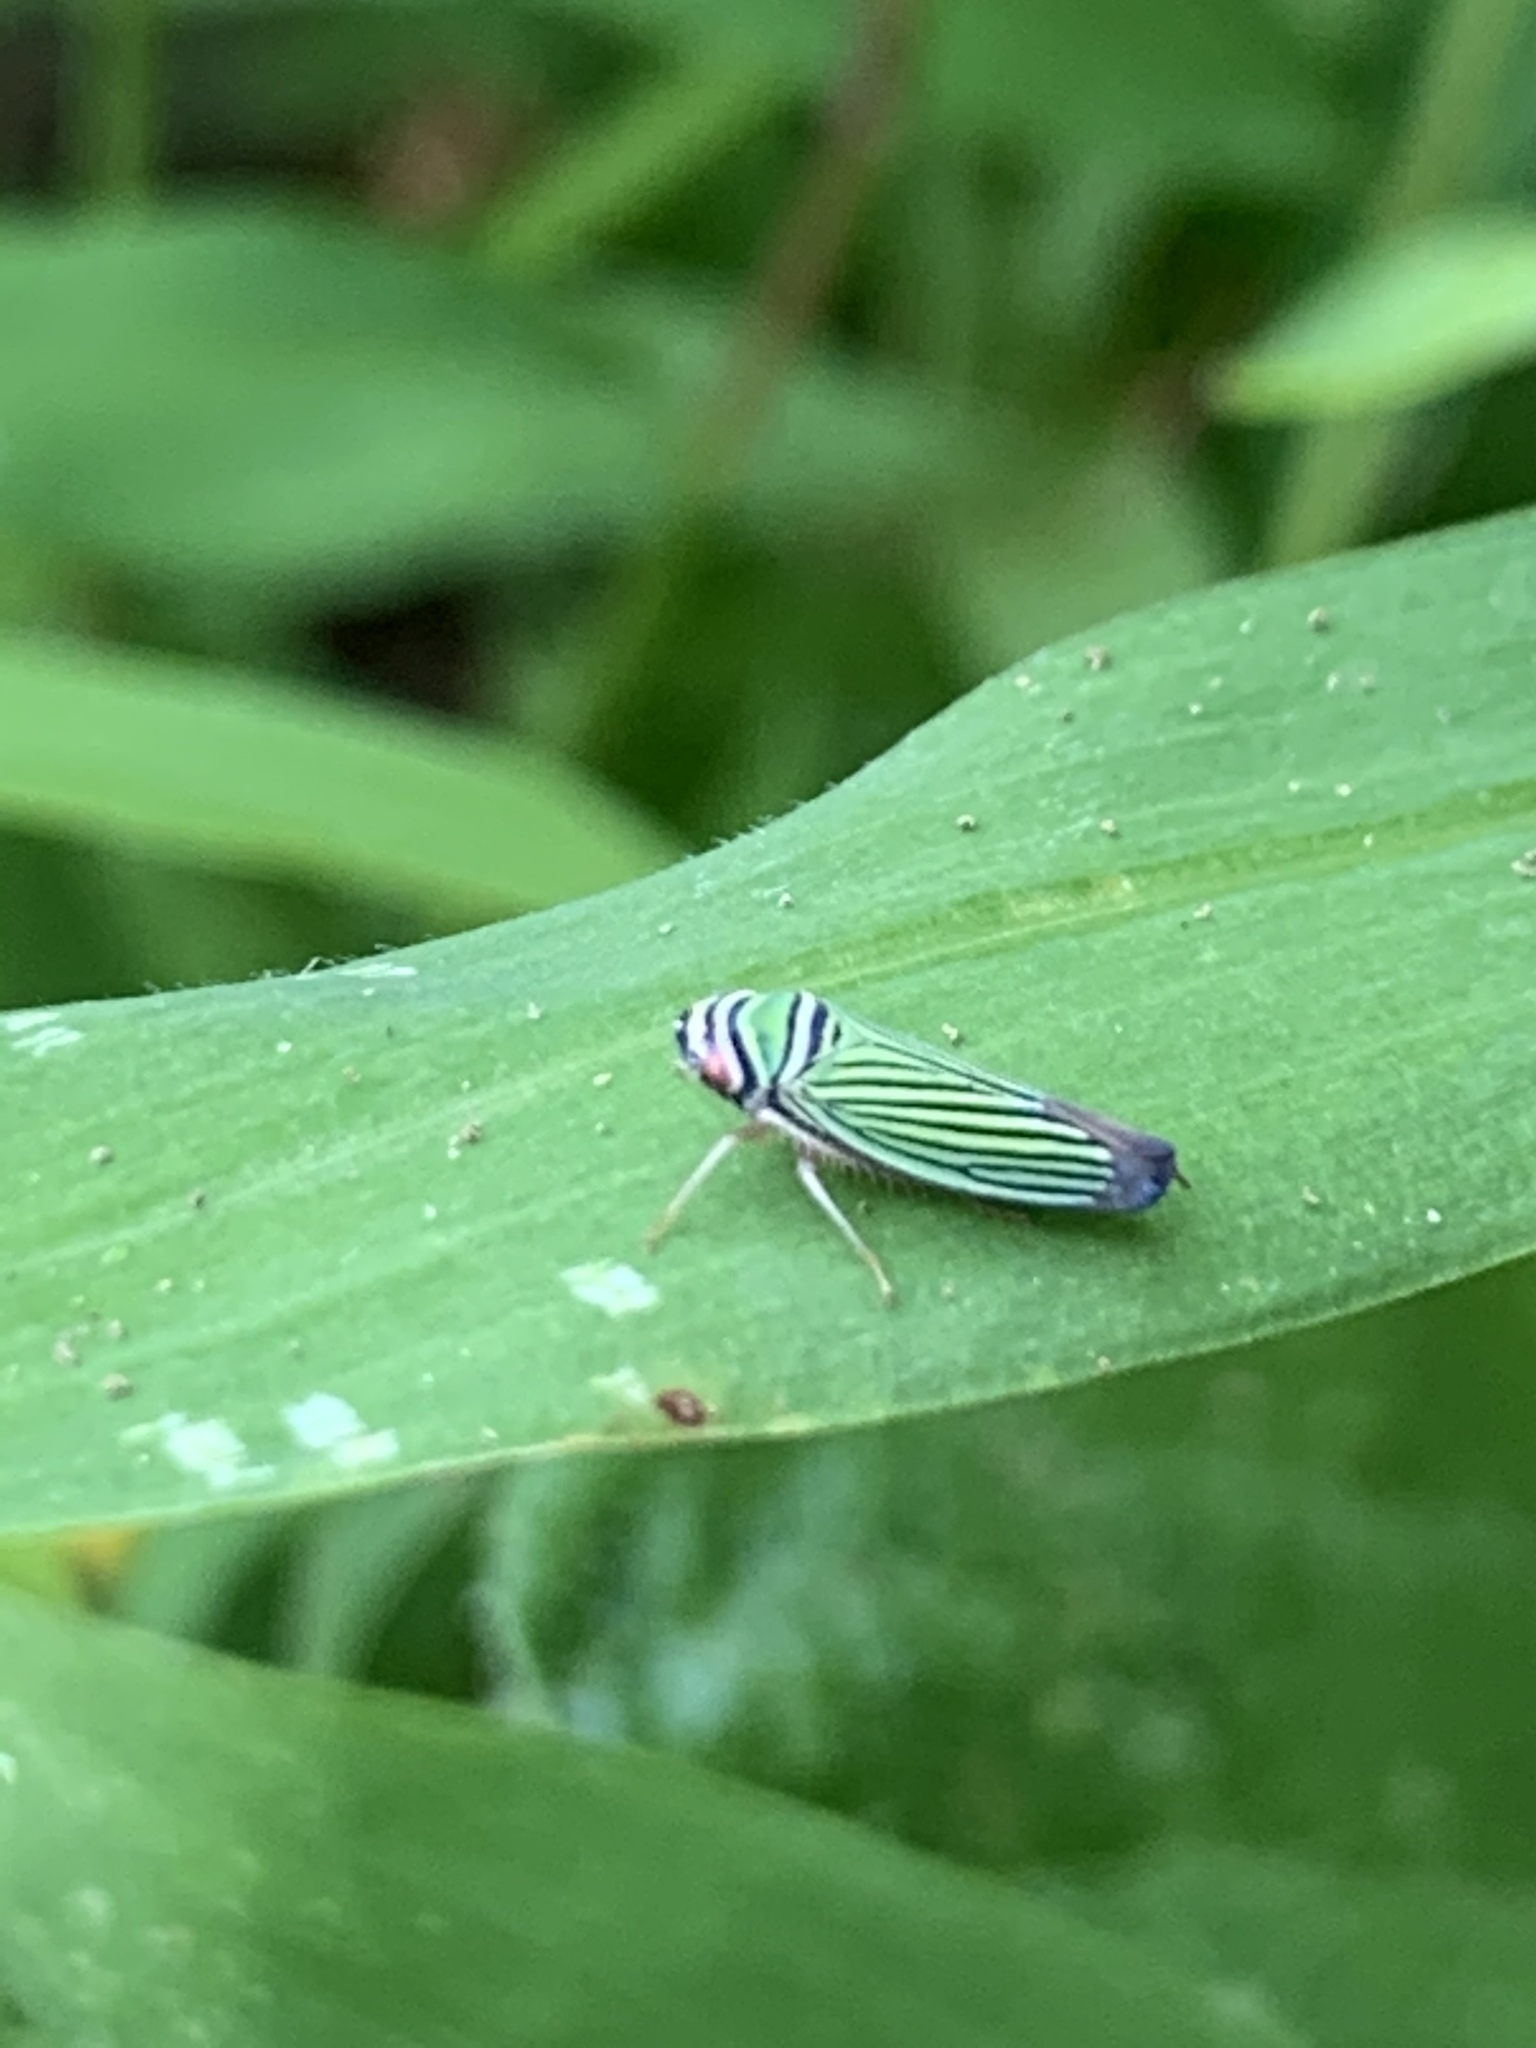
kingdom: Animalia
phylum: Arthropoda
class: Insecta
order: Hemiptera
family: Cicadellidae
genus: Tylozygus
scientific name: Tylozygus bifidus
